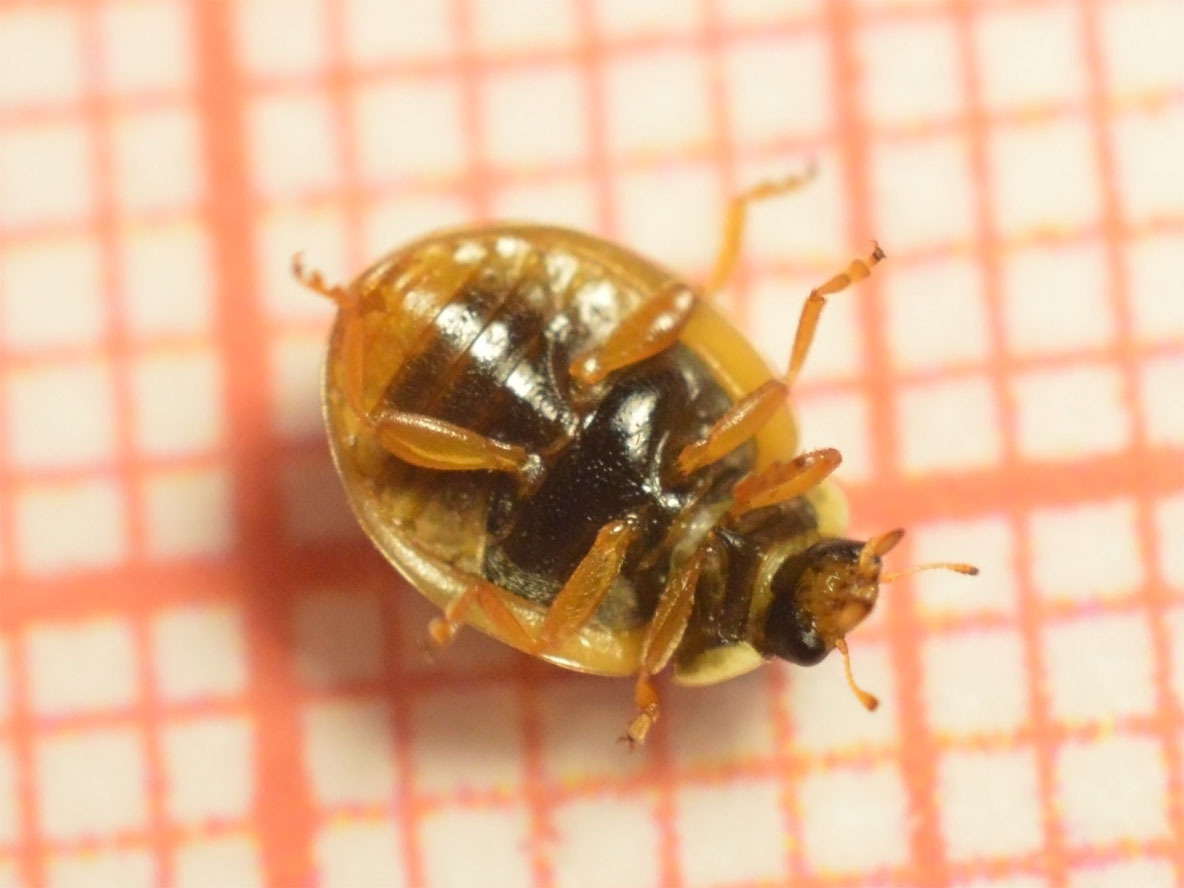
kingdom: Animalia
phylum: Arthropoda
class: Insecta
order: Coleoptera
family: Coccinellidae
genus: Adalia
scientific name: Adalia decempunctata
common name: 10-spot ladybird
